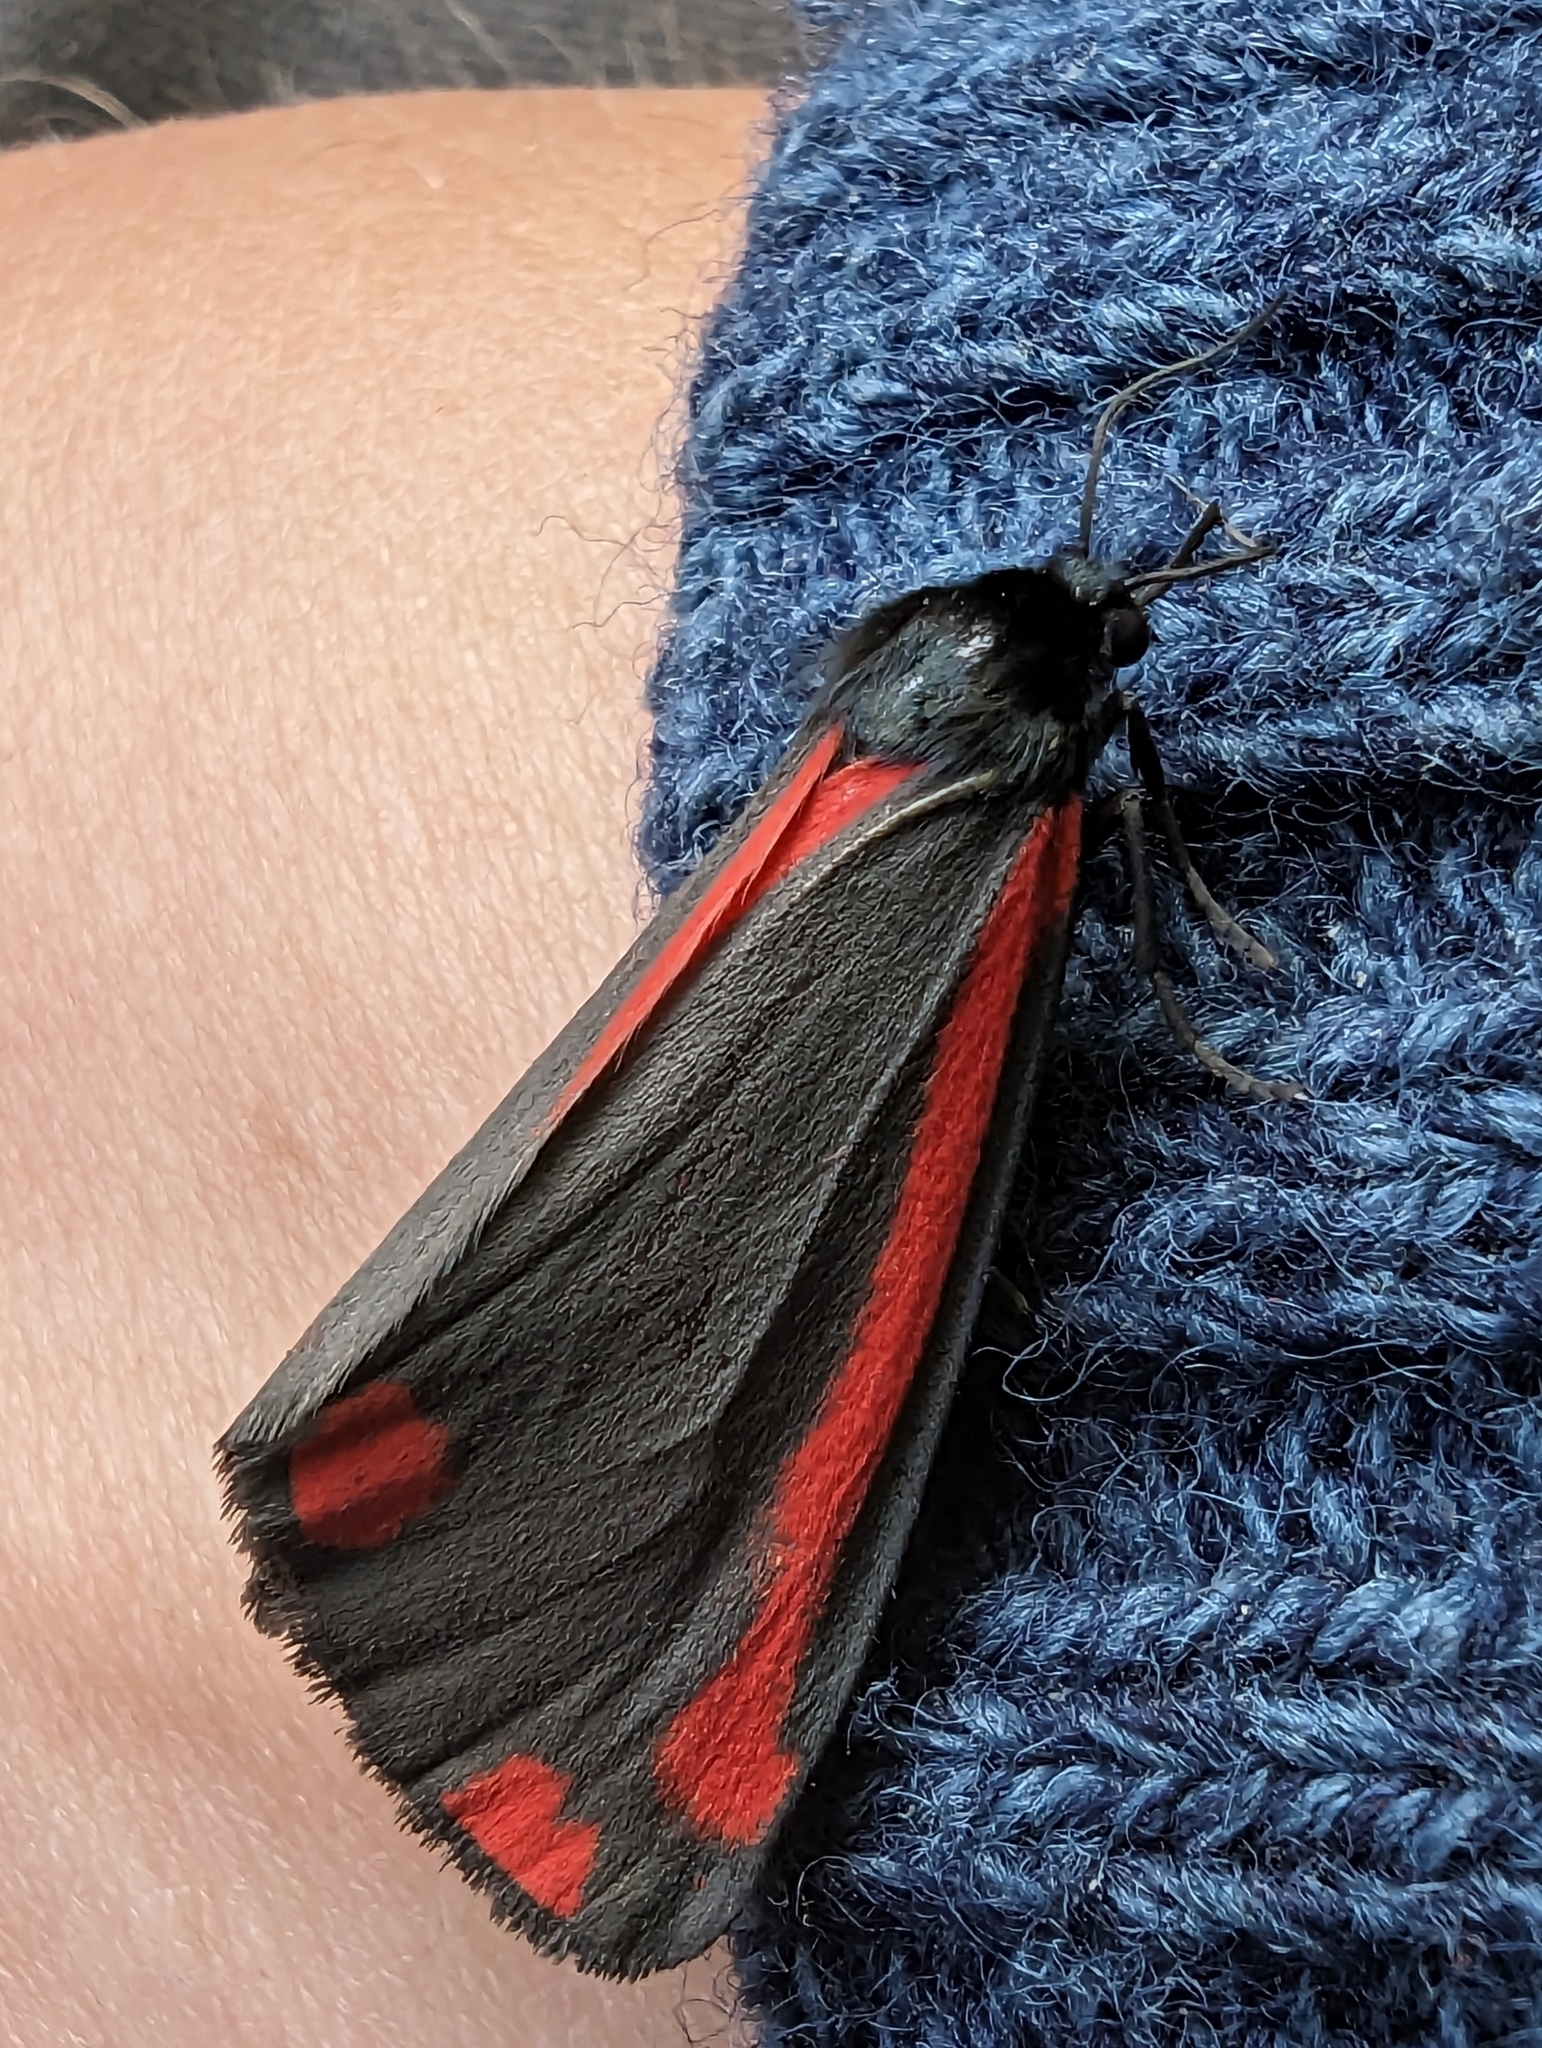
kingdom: Animalia
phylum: Arthropoda
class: Insecta
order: Lepidoptera
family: Erebidae
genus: Tyria
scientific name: Tyria jacobaeae
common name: Cinnabar
